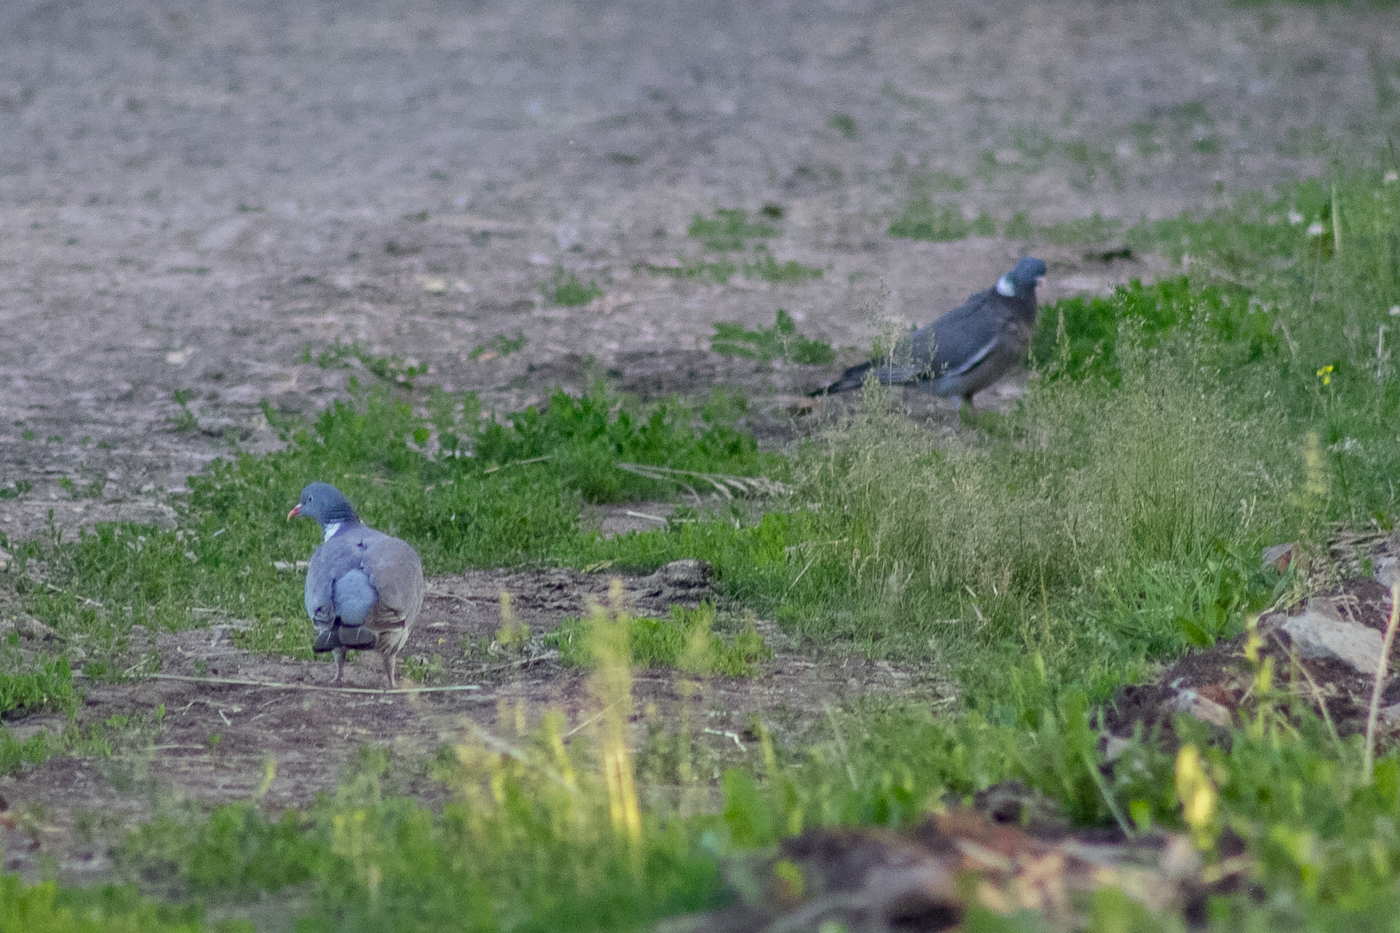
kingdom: Animalia
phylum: Chordata
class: Aves
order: Columbiformes
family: Columbidae
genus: Columba
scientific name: Columba palumbus
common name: Common wood pigeon
